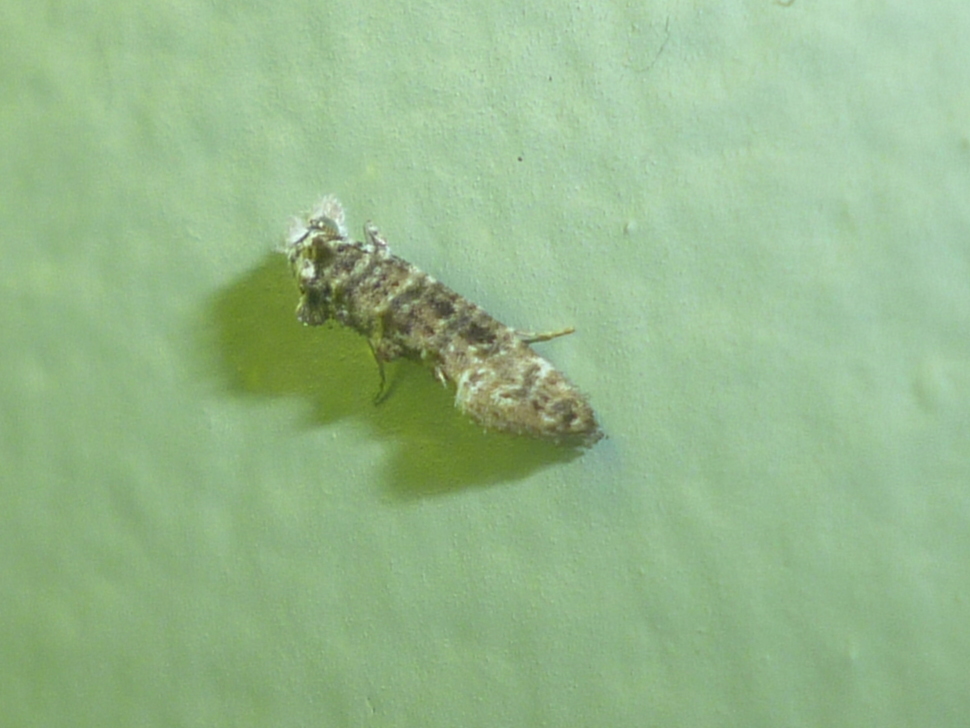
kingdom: Animalia
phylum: Arthropoda
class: Insecta
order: Lepidoptera
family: Tineidae
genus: Xylesthia
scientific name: Xylesthia pruniramiella
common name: Clemens' bark moth
